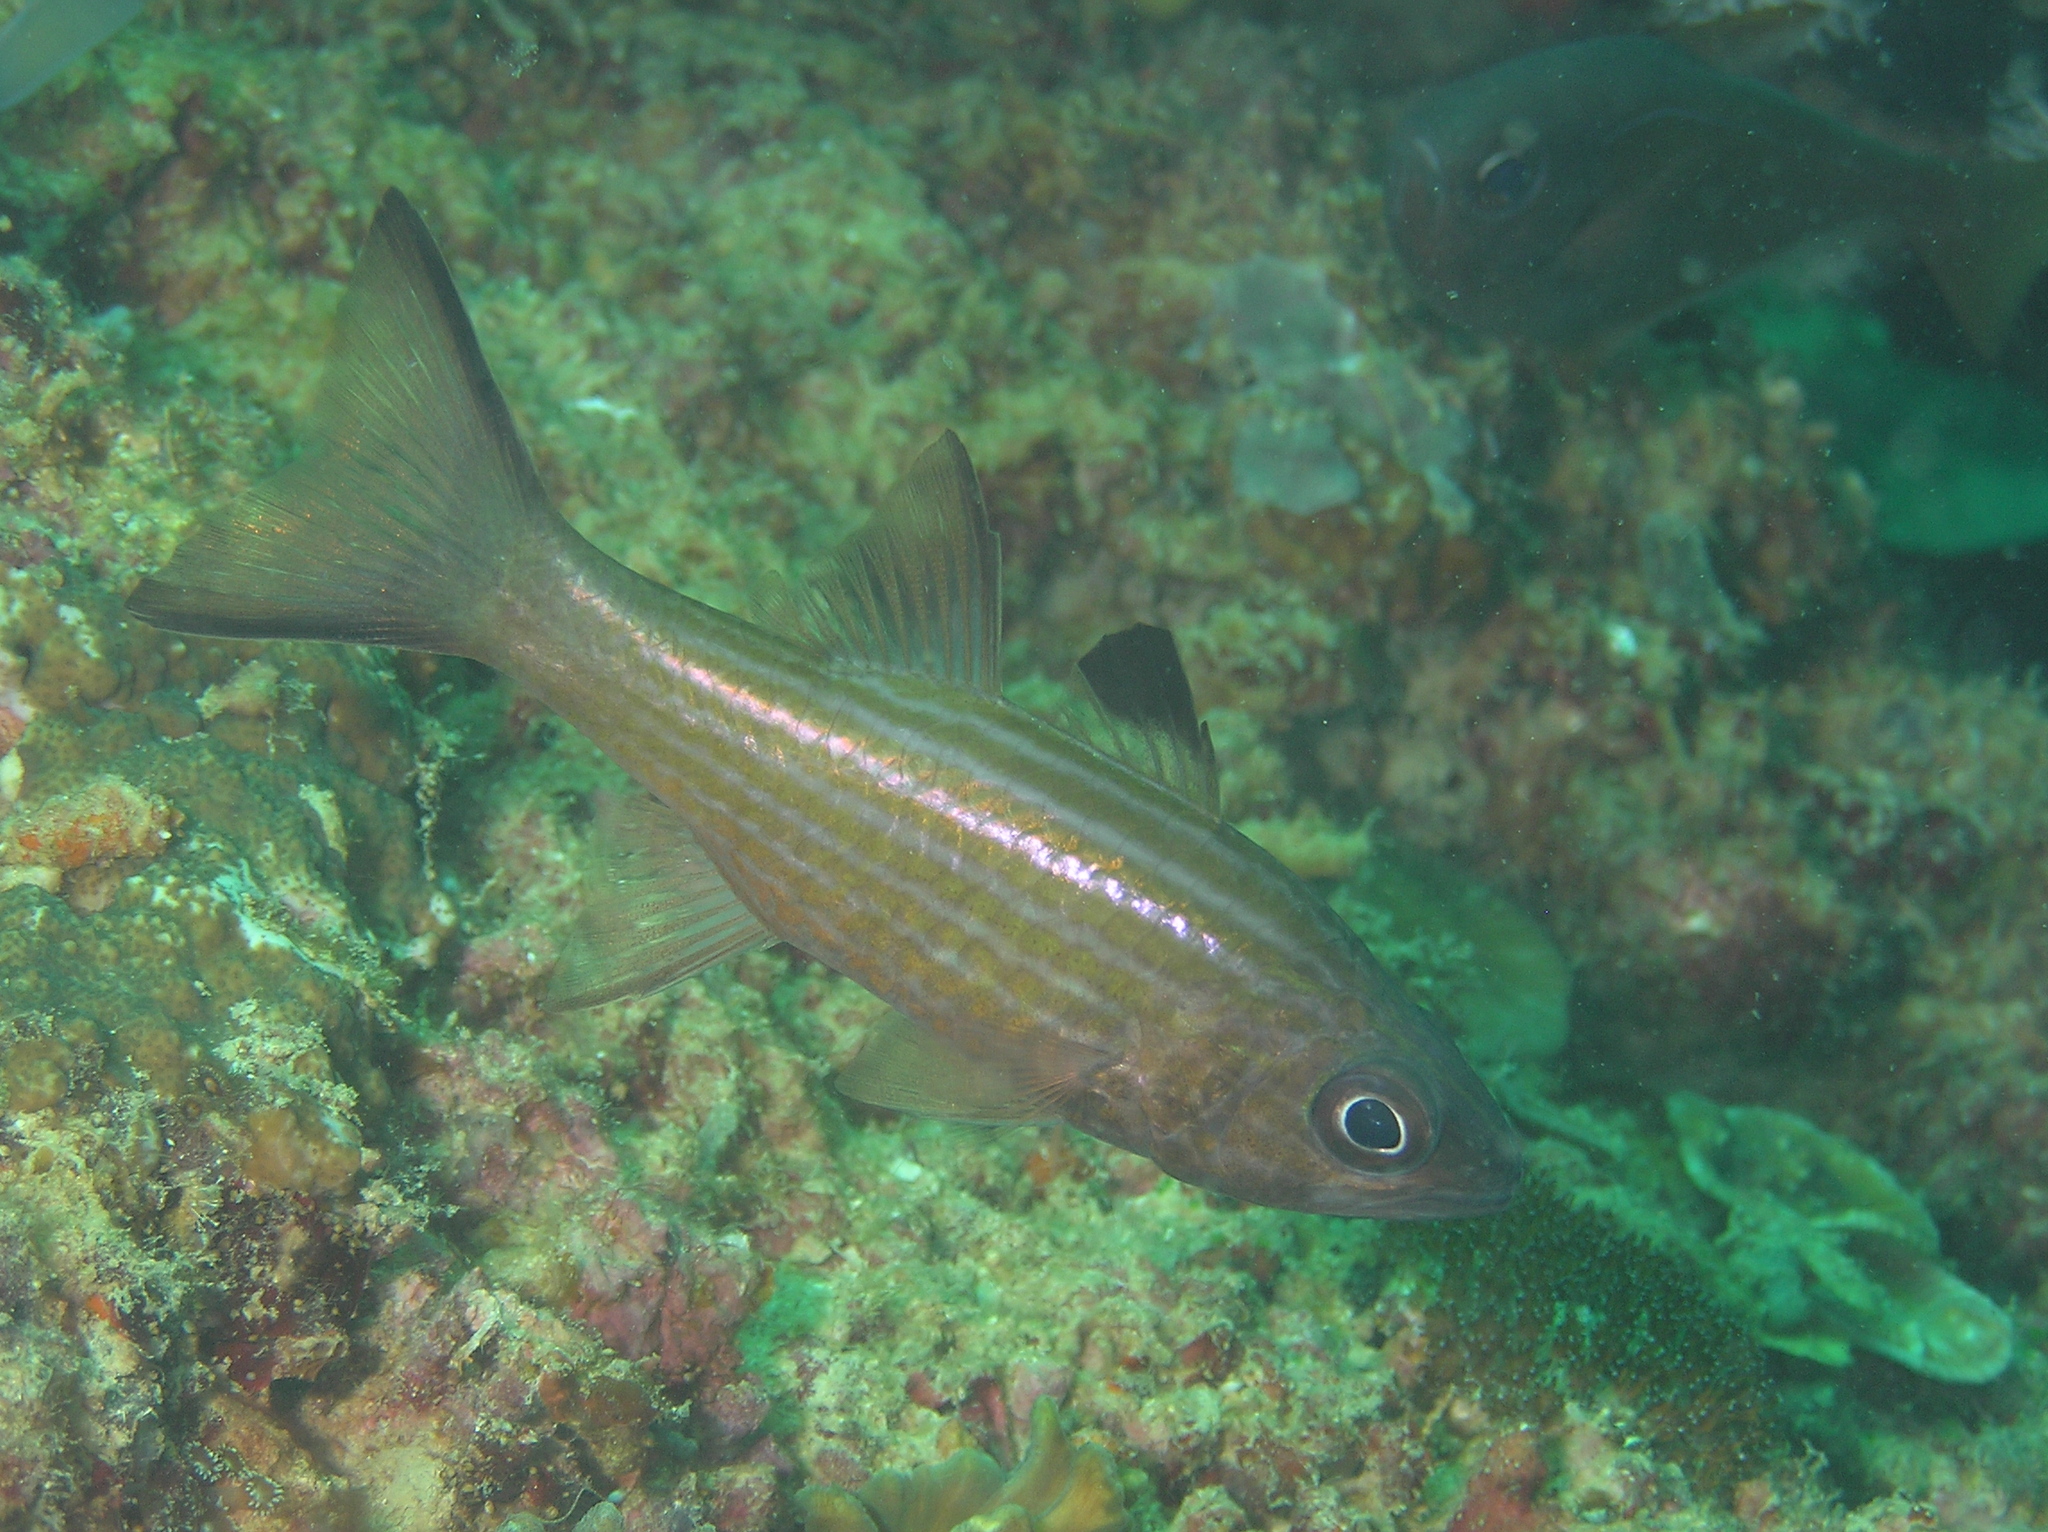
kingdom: Animalia
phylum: Chordata
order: Perciformes
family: Apogonidae
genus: Cheilodipterus
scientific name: Cheilodipterus alleni
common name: Allen's cardinalfish
